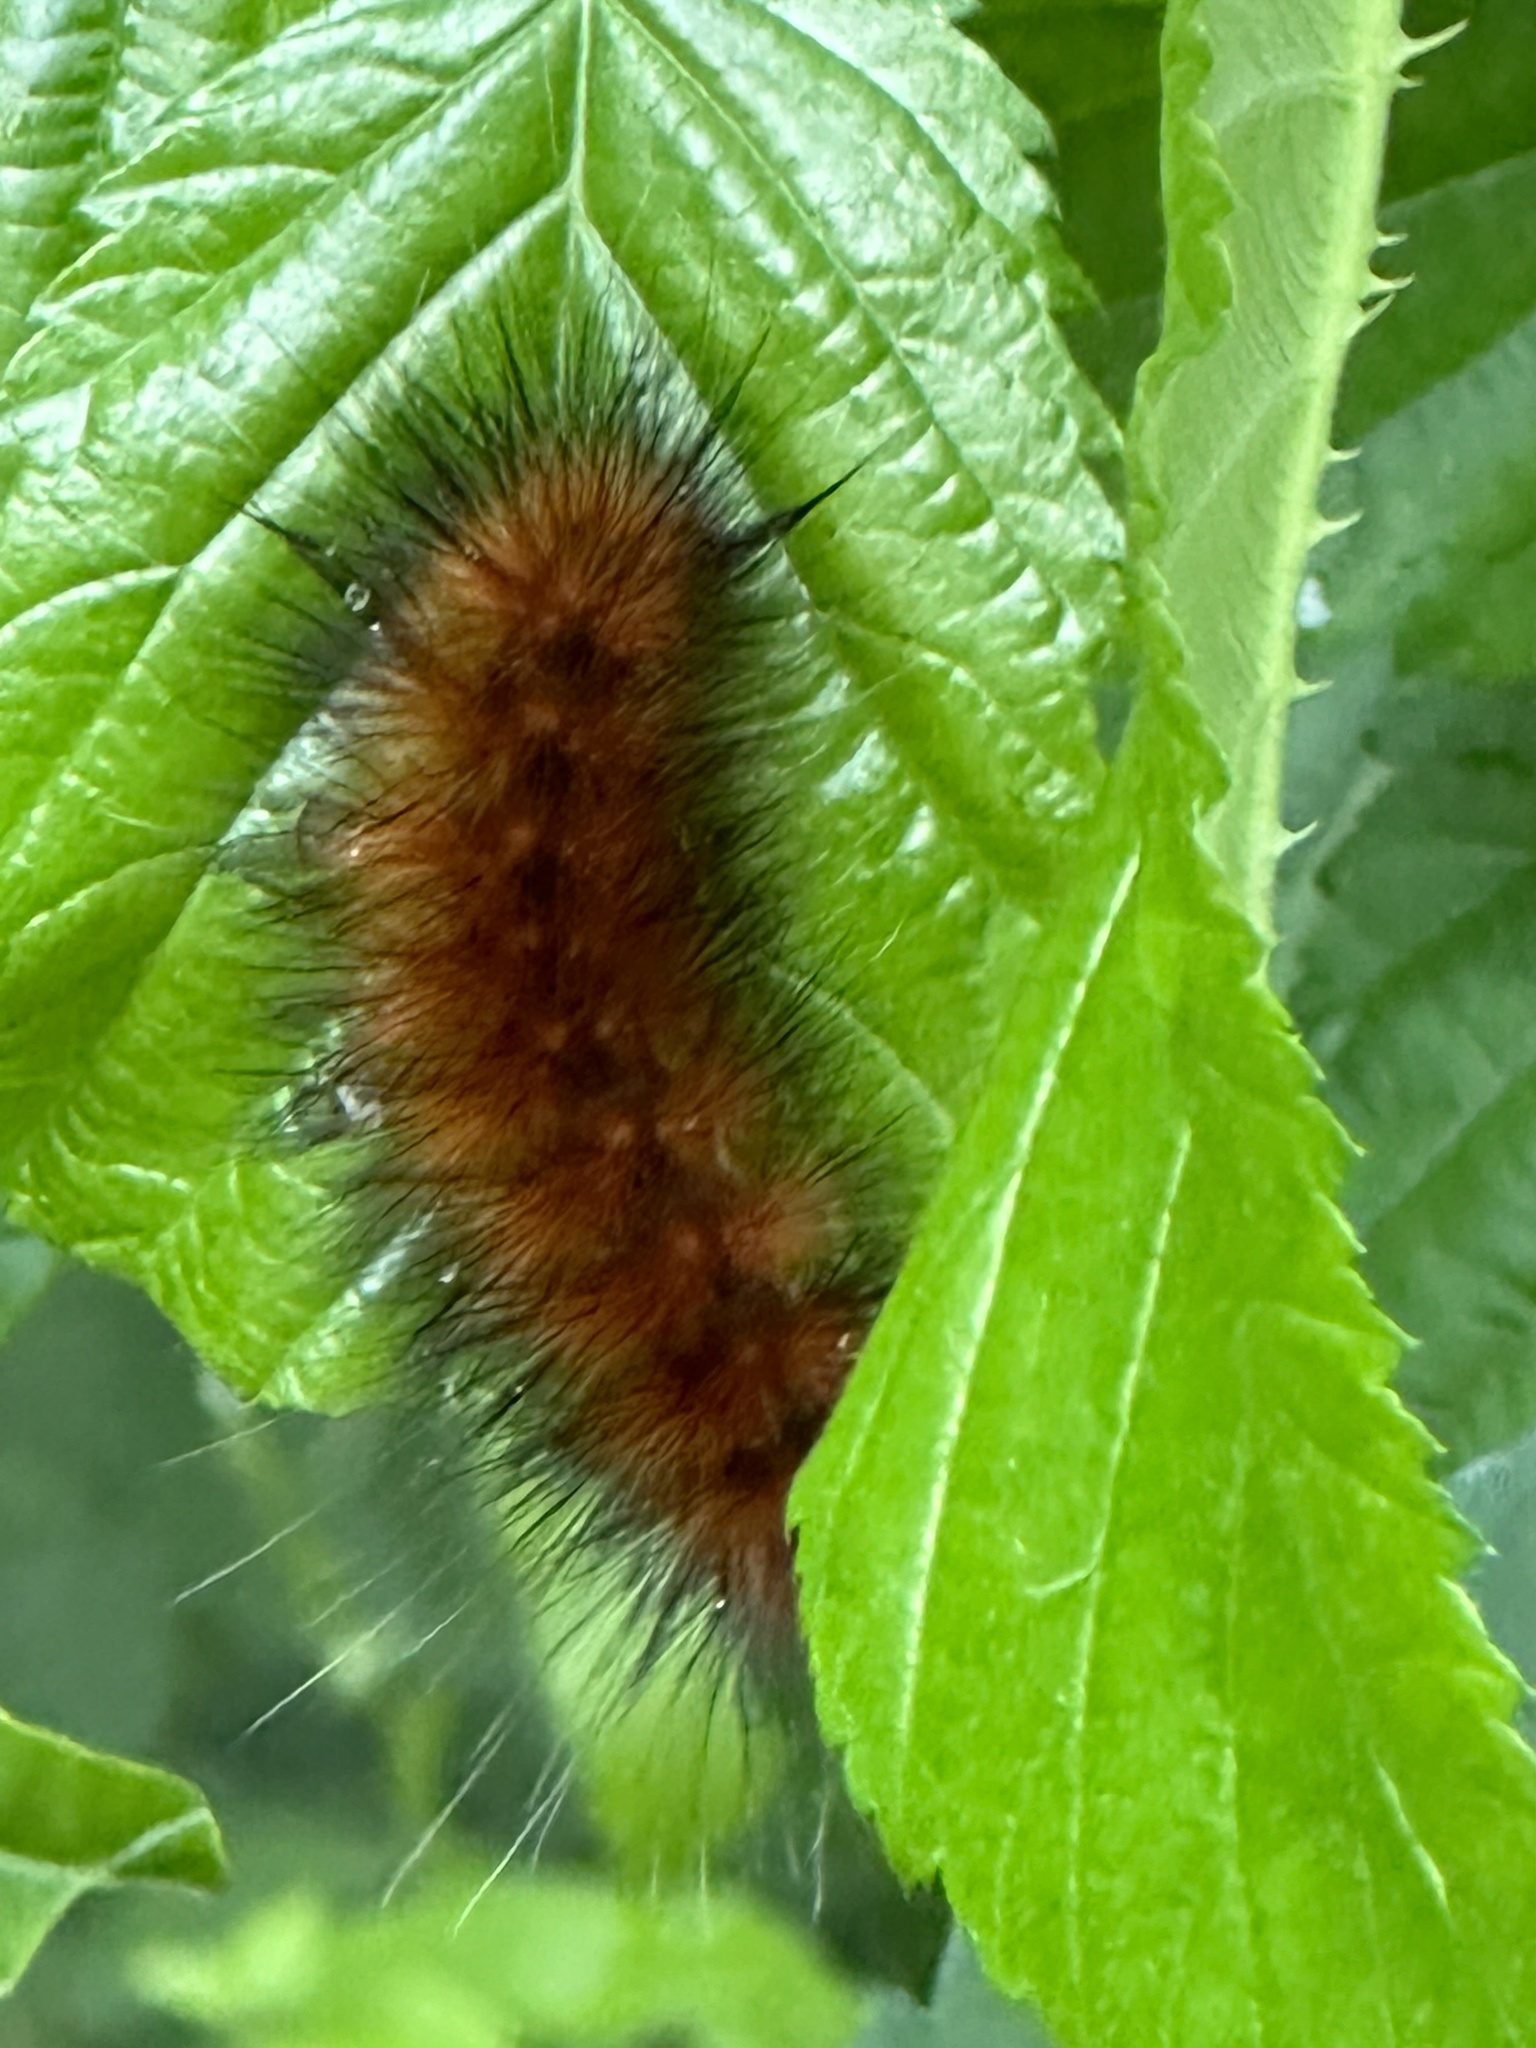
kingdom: Animalia
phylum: Arthropoda
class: Insecta
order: Lepidoptera
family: Erebidae
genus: Spilosoma
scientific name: Spilosoma virginica
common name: Virginia tiger moth
